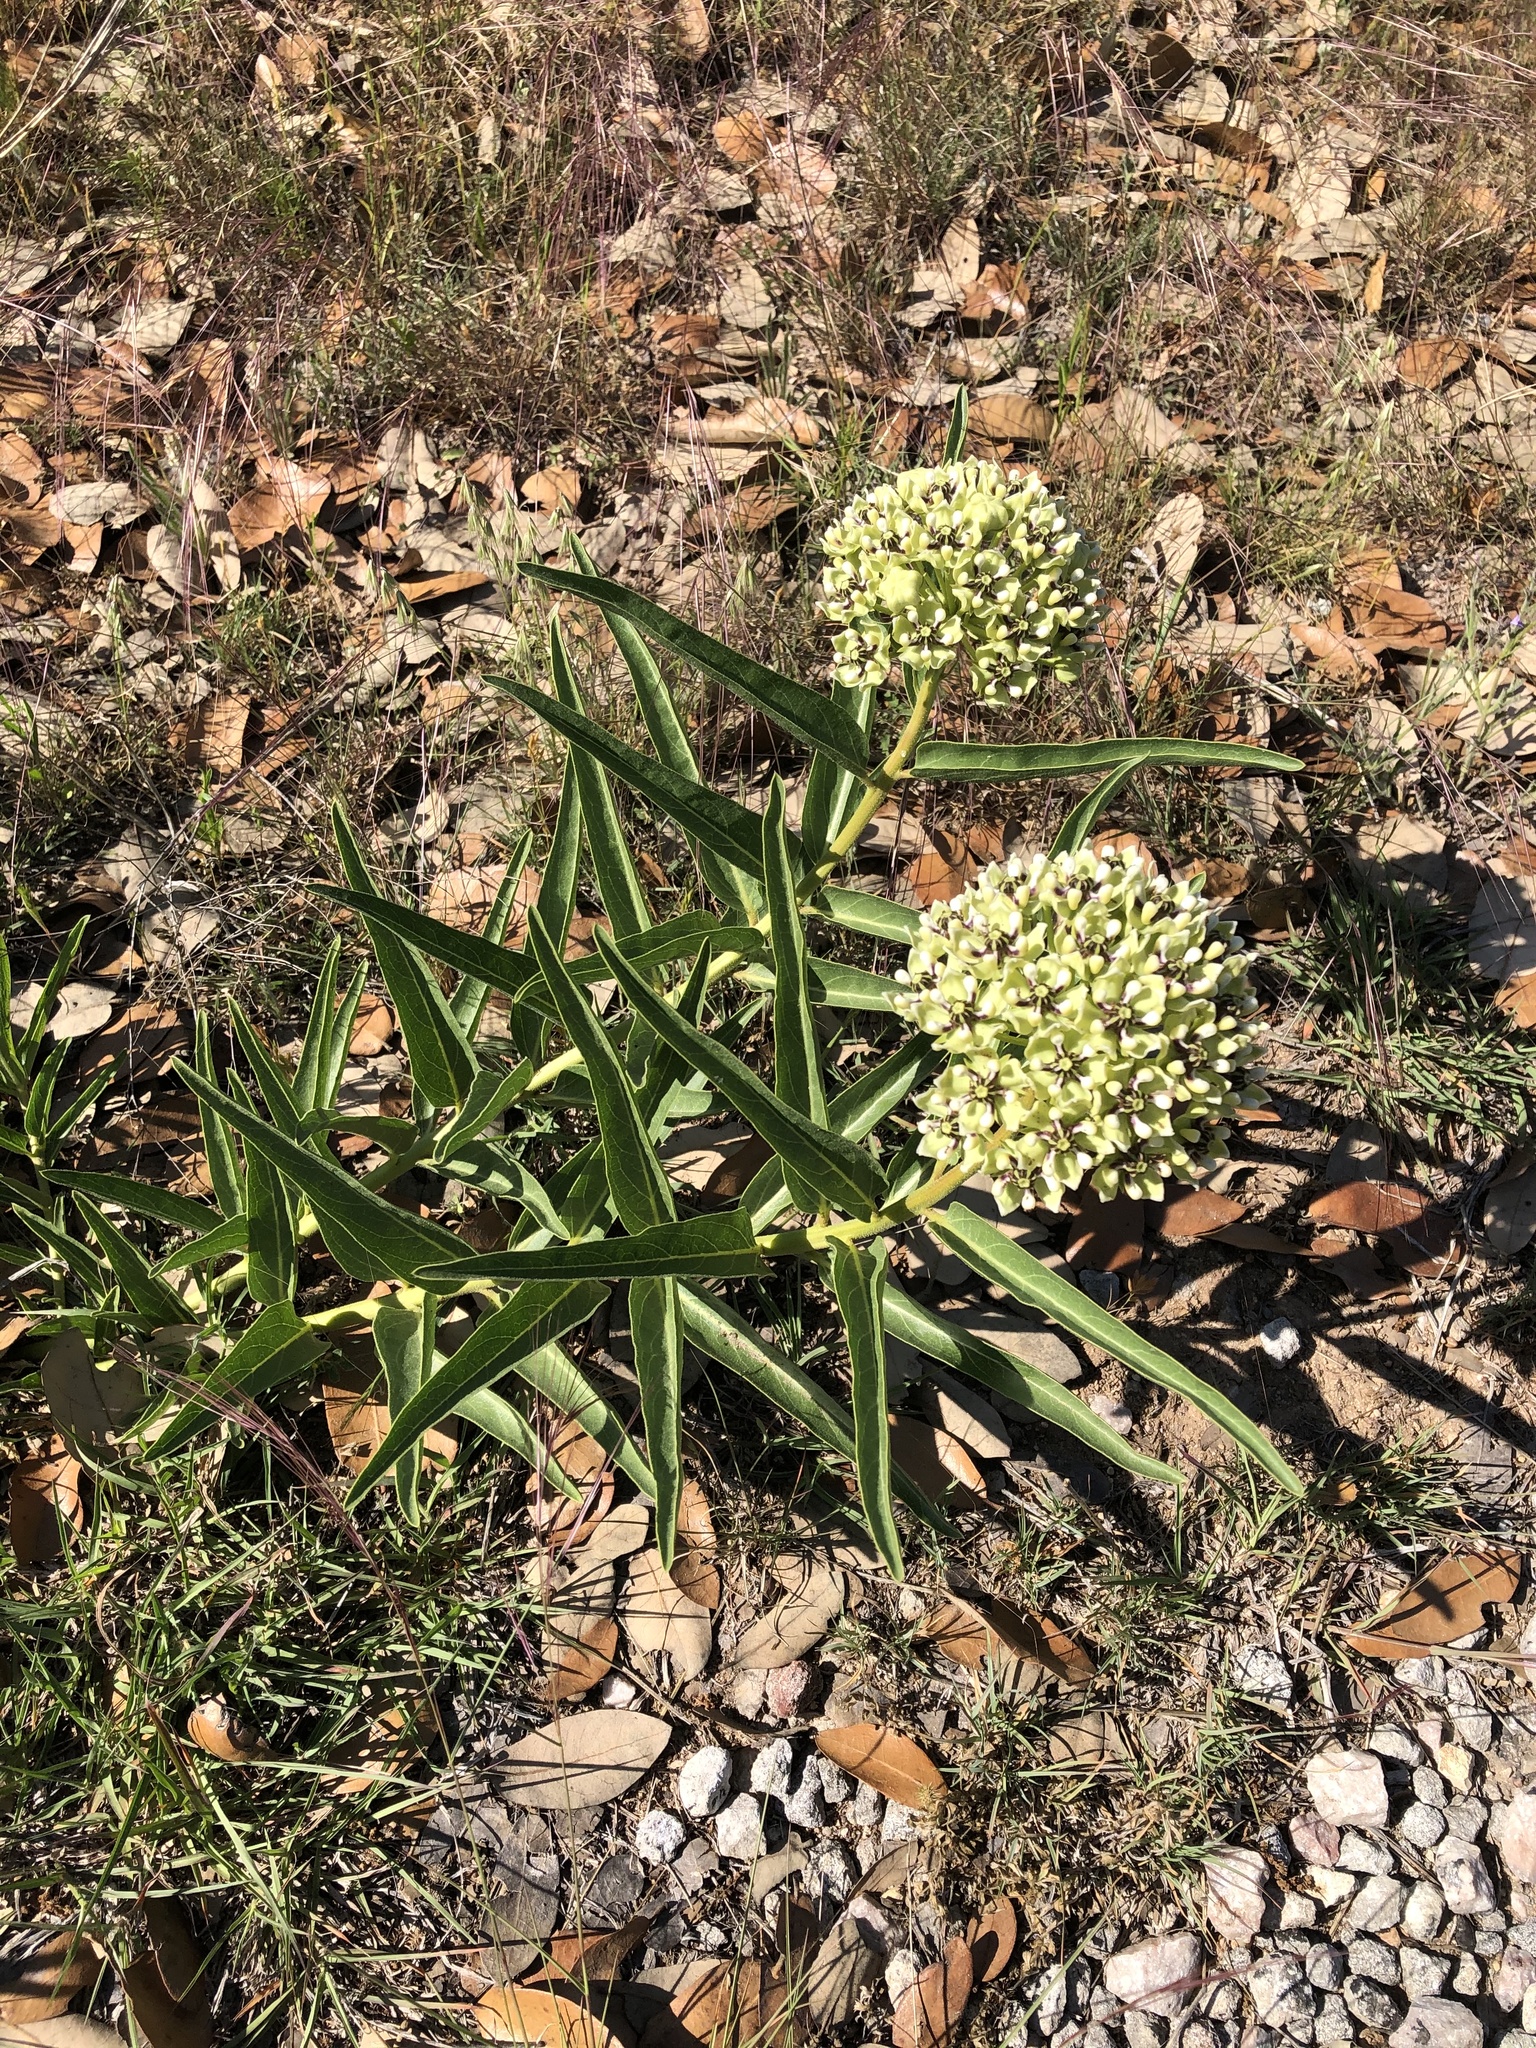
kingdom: Plantae
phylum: Tracheophyta
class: Magnoliopsida
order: Gentianales
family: Apocynaceae
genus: Asclepias
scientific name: Asclepias asperula
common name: Antelope horns
